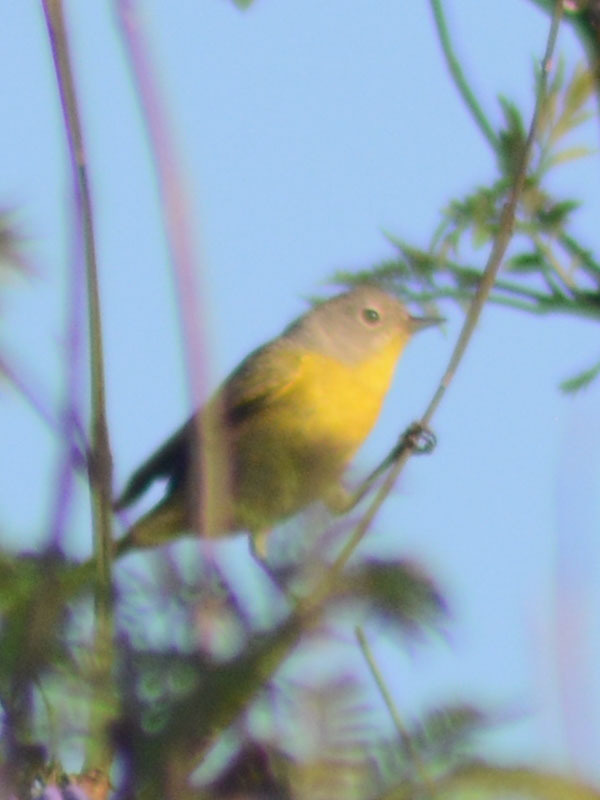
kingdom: Animalia
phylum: Chordata
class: Aves
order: Passeriformes
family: Parulidae
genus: Leiothlypis
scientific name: Leiothlypis ruficapilla
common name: Nashville warbler
